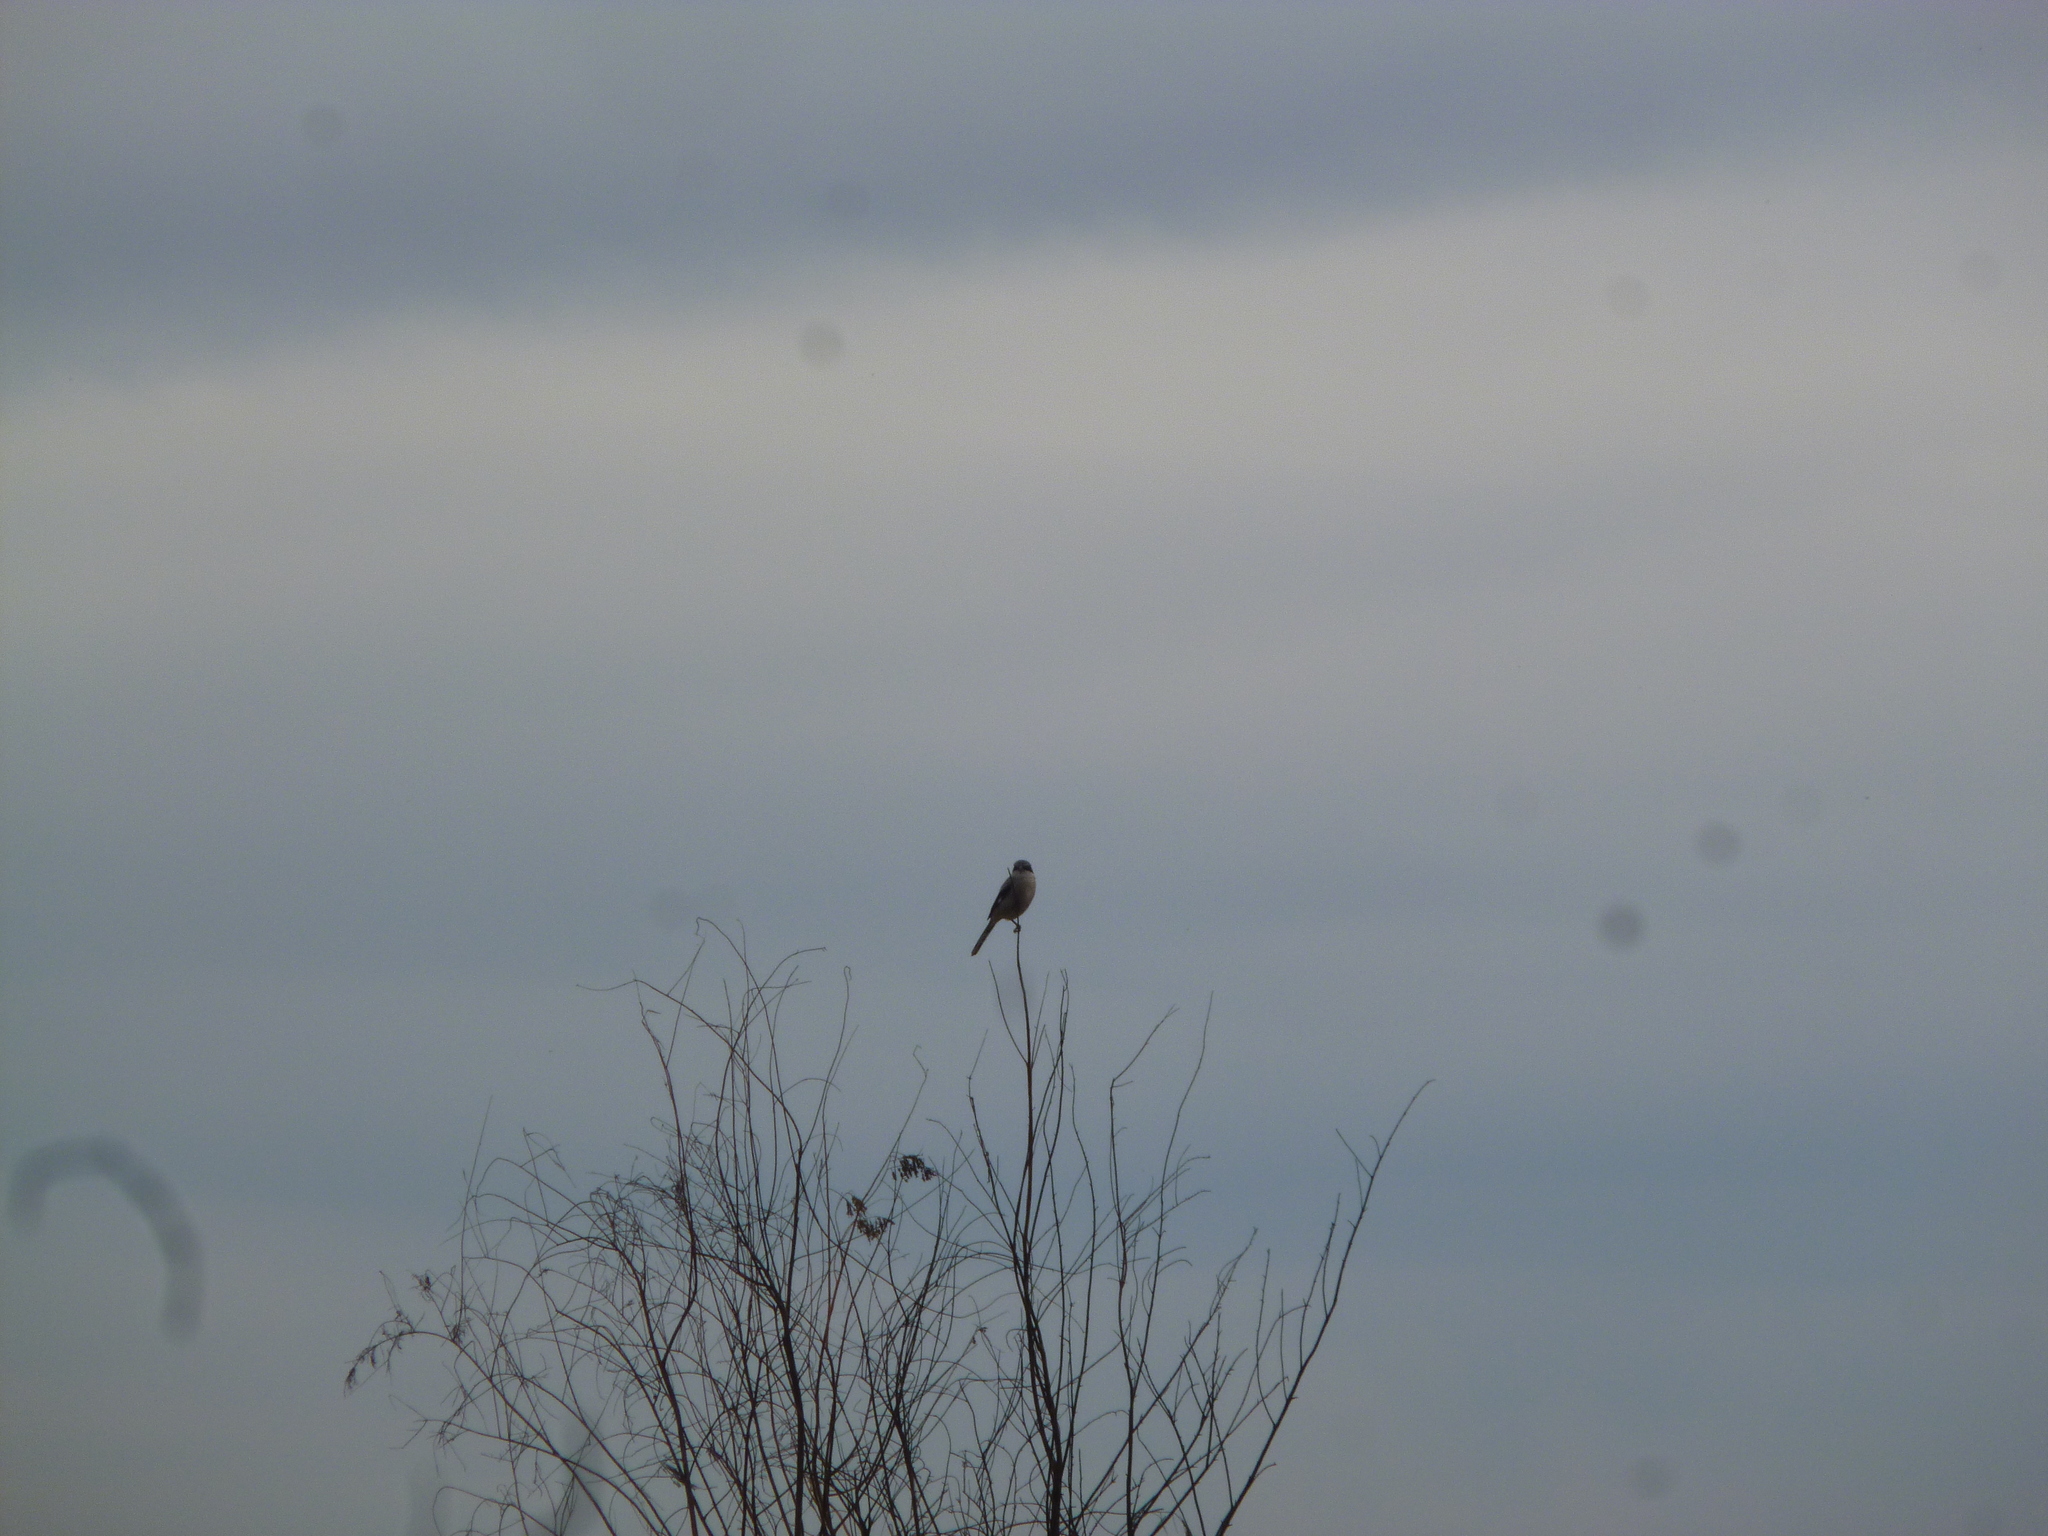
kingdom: Animalia
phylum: Chordata
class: Aves
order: Passeriformes
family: Laniidae
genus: Lanius
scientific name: Lanius ludovicianus
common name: Loggerhead shrike
